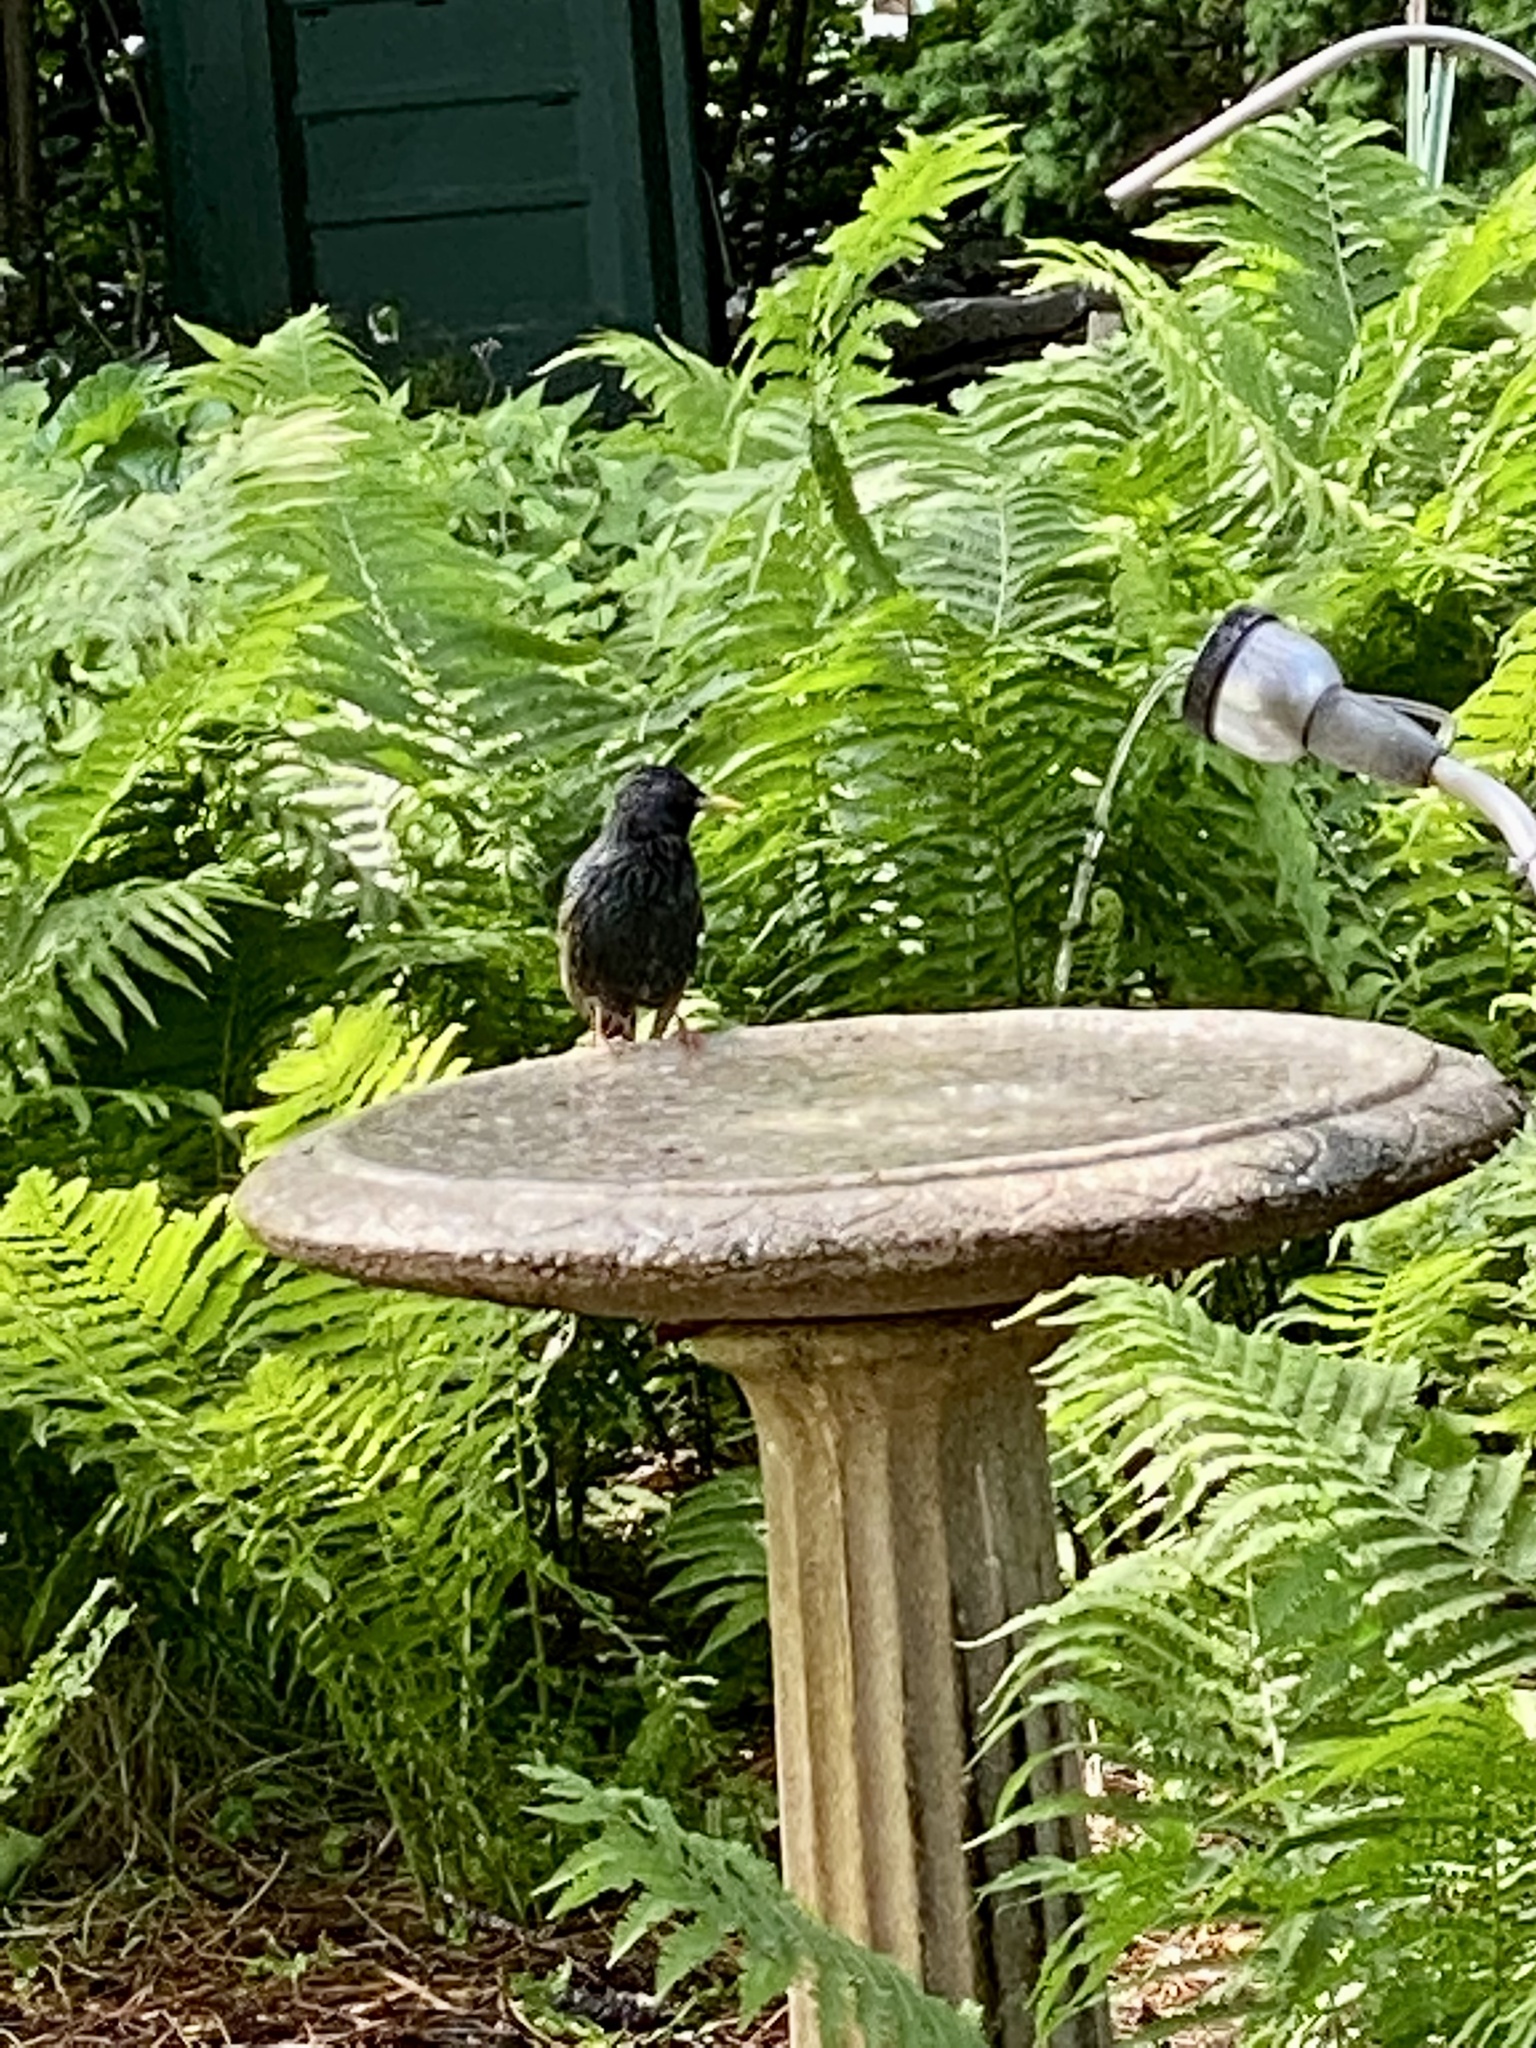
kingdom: Animalia
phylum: Chordata
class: Aves
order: Passeriformes
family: Sturnidae
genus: Sturnus
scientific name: Sturnus vulgaris
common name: Common starling
